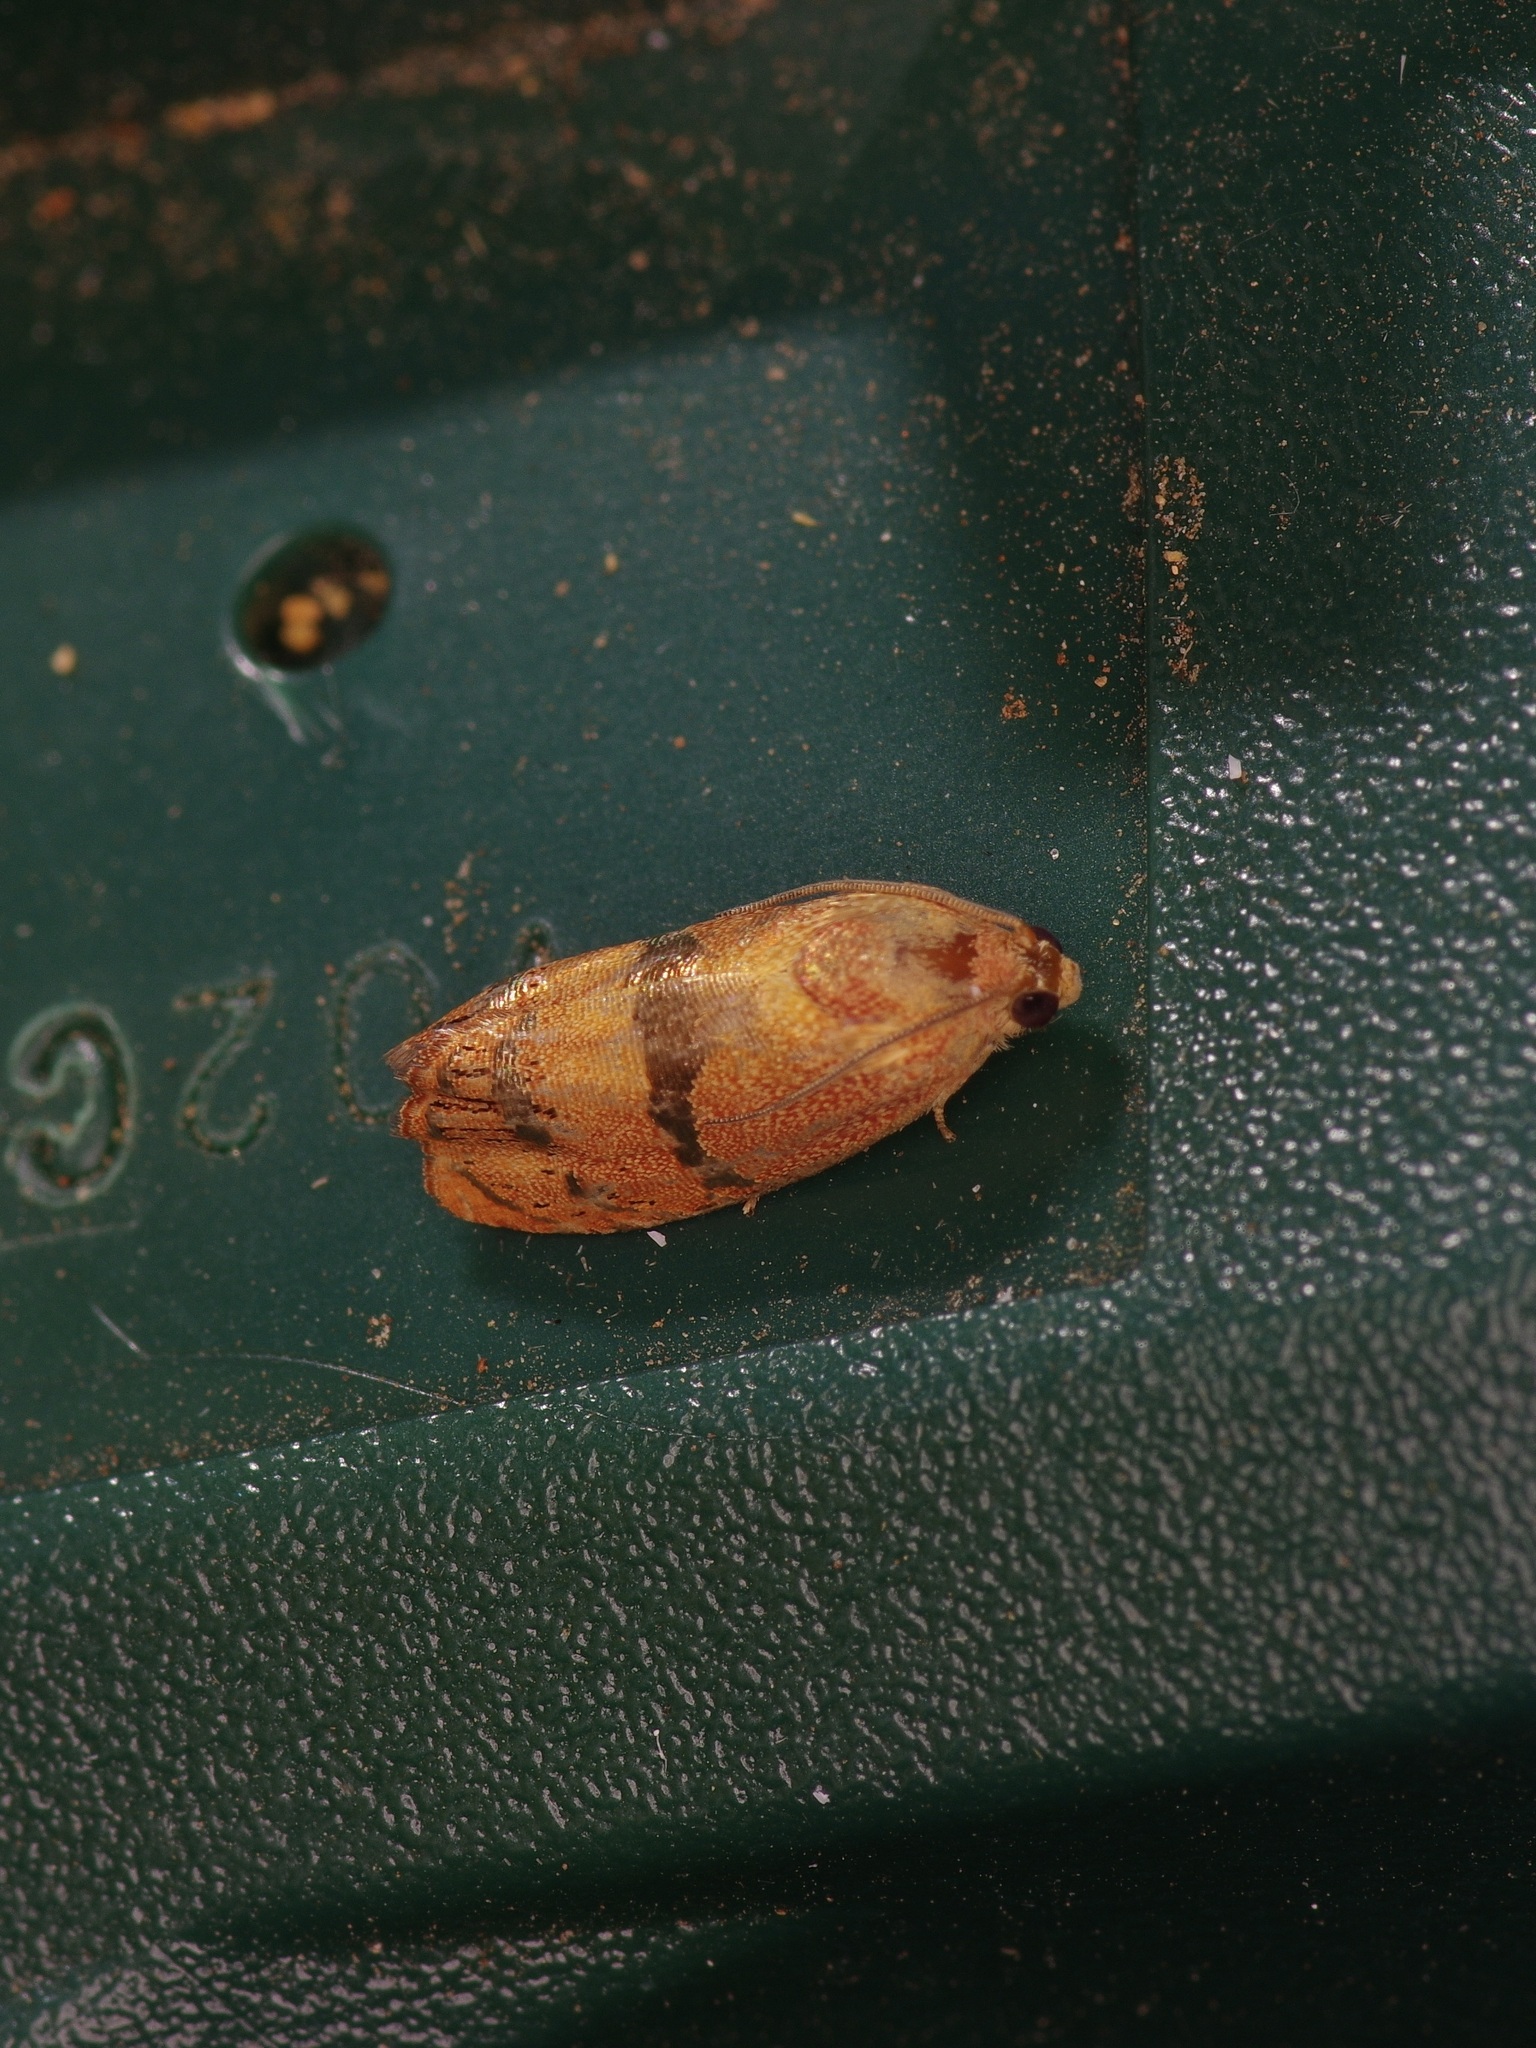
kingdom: Animalia
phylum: Arthropoda
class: Insecta
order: Lepidoptera
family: Tortricidae
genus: Cydia
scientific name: Cydia latiferreana
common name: Filbertworm moth
